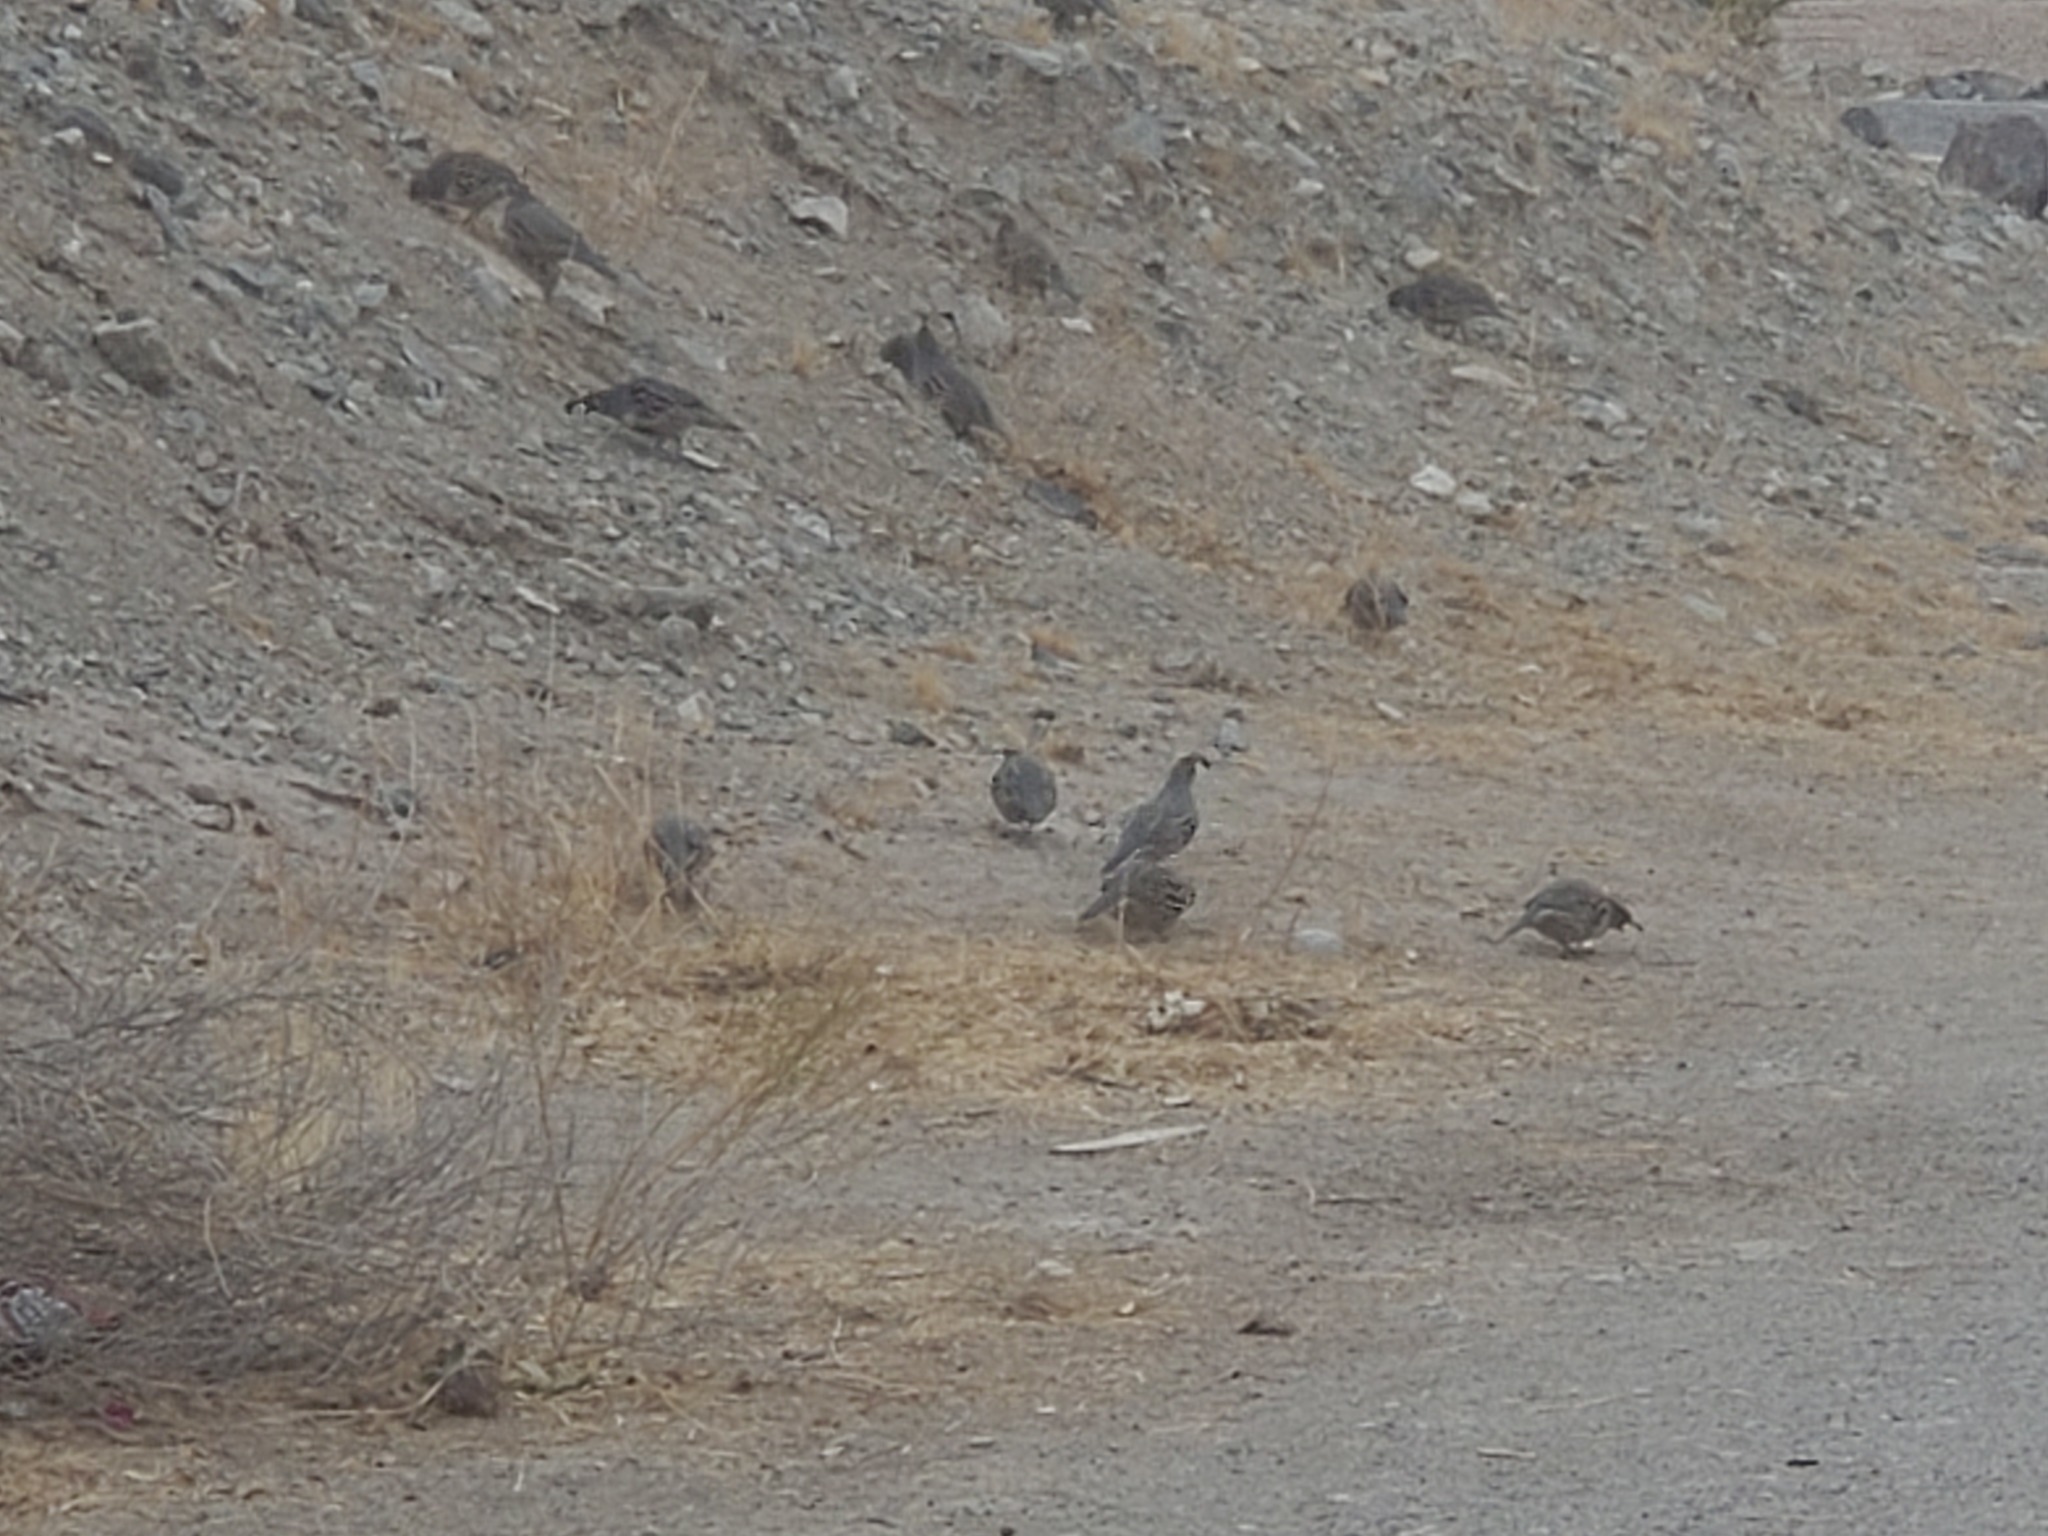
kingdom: Animalia
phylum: Chordata
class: Aves
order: Galliformes
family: Odontophoridae
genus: Callipepla
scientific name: Callipepla gambelii
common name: Gambel's quail
